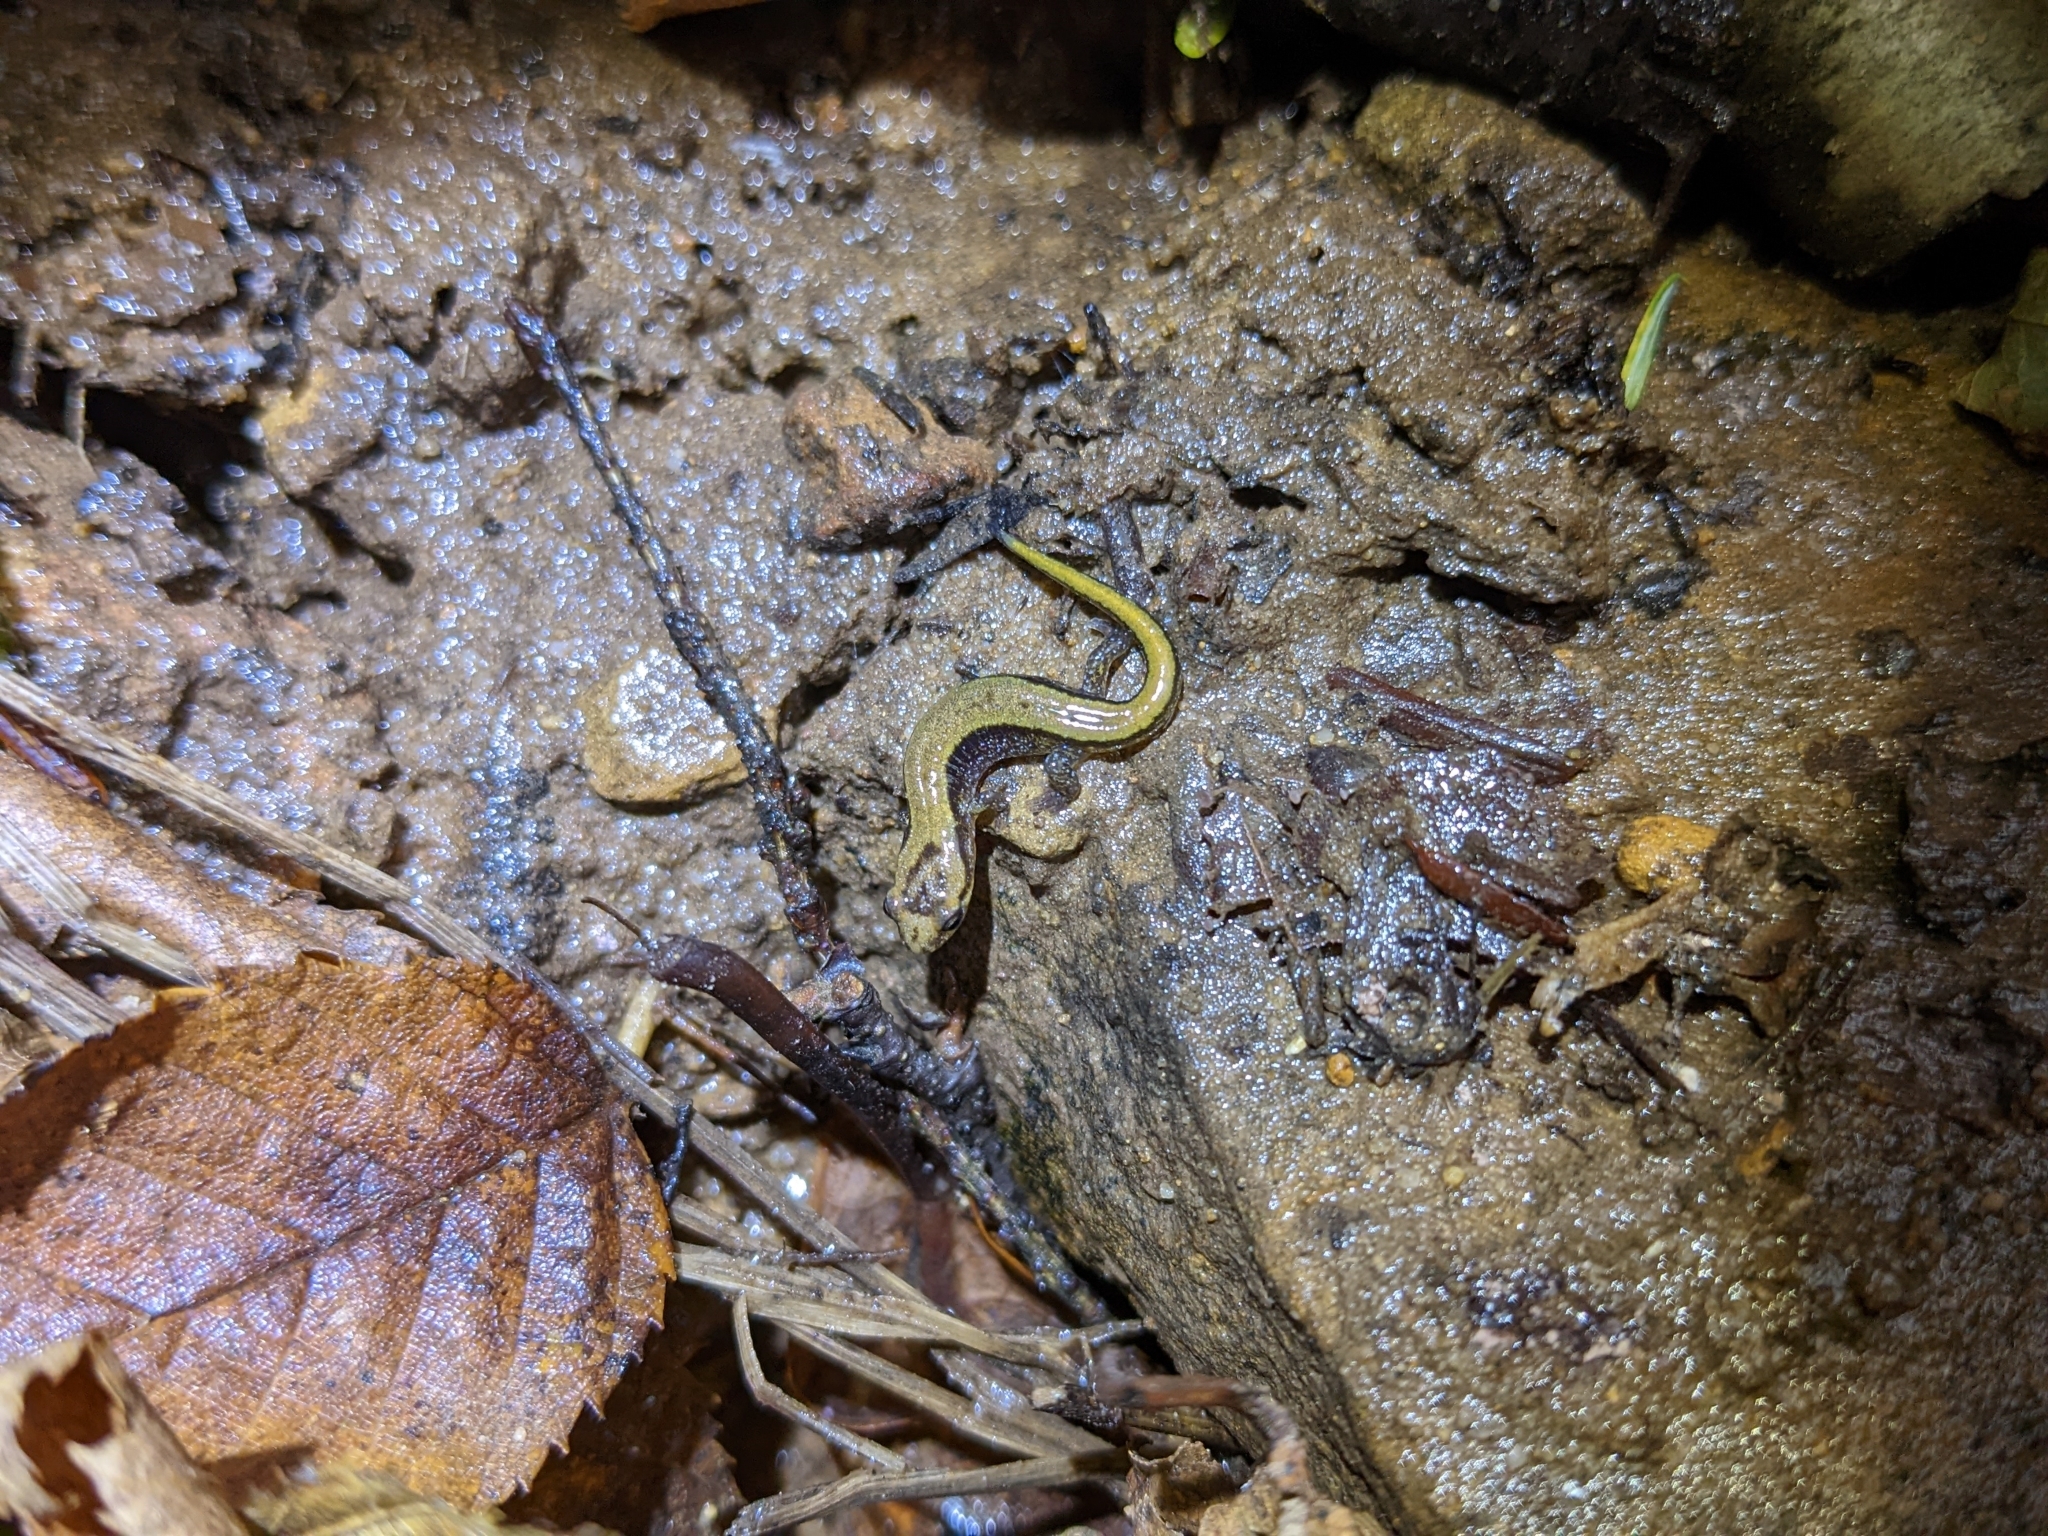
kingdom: Animalia
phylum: Chordata
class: Amphibia
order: Caudata
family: Plethodontidae
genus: Desmognathus
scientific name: Desmognathus ochrophaeus
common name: Allegheny mountain dusky salamander
